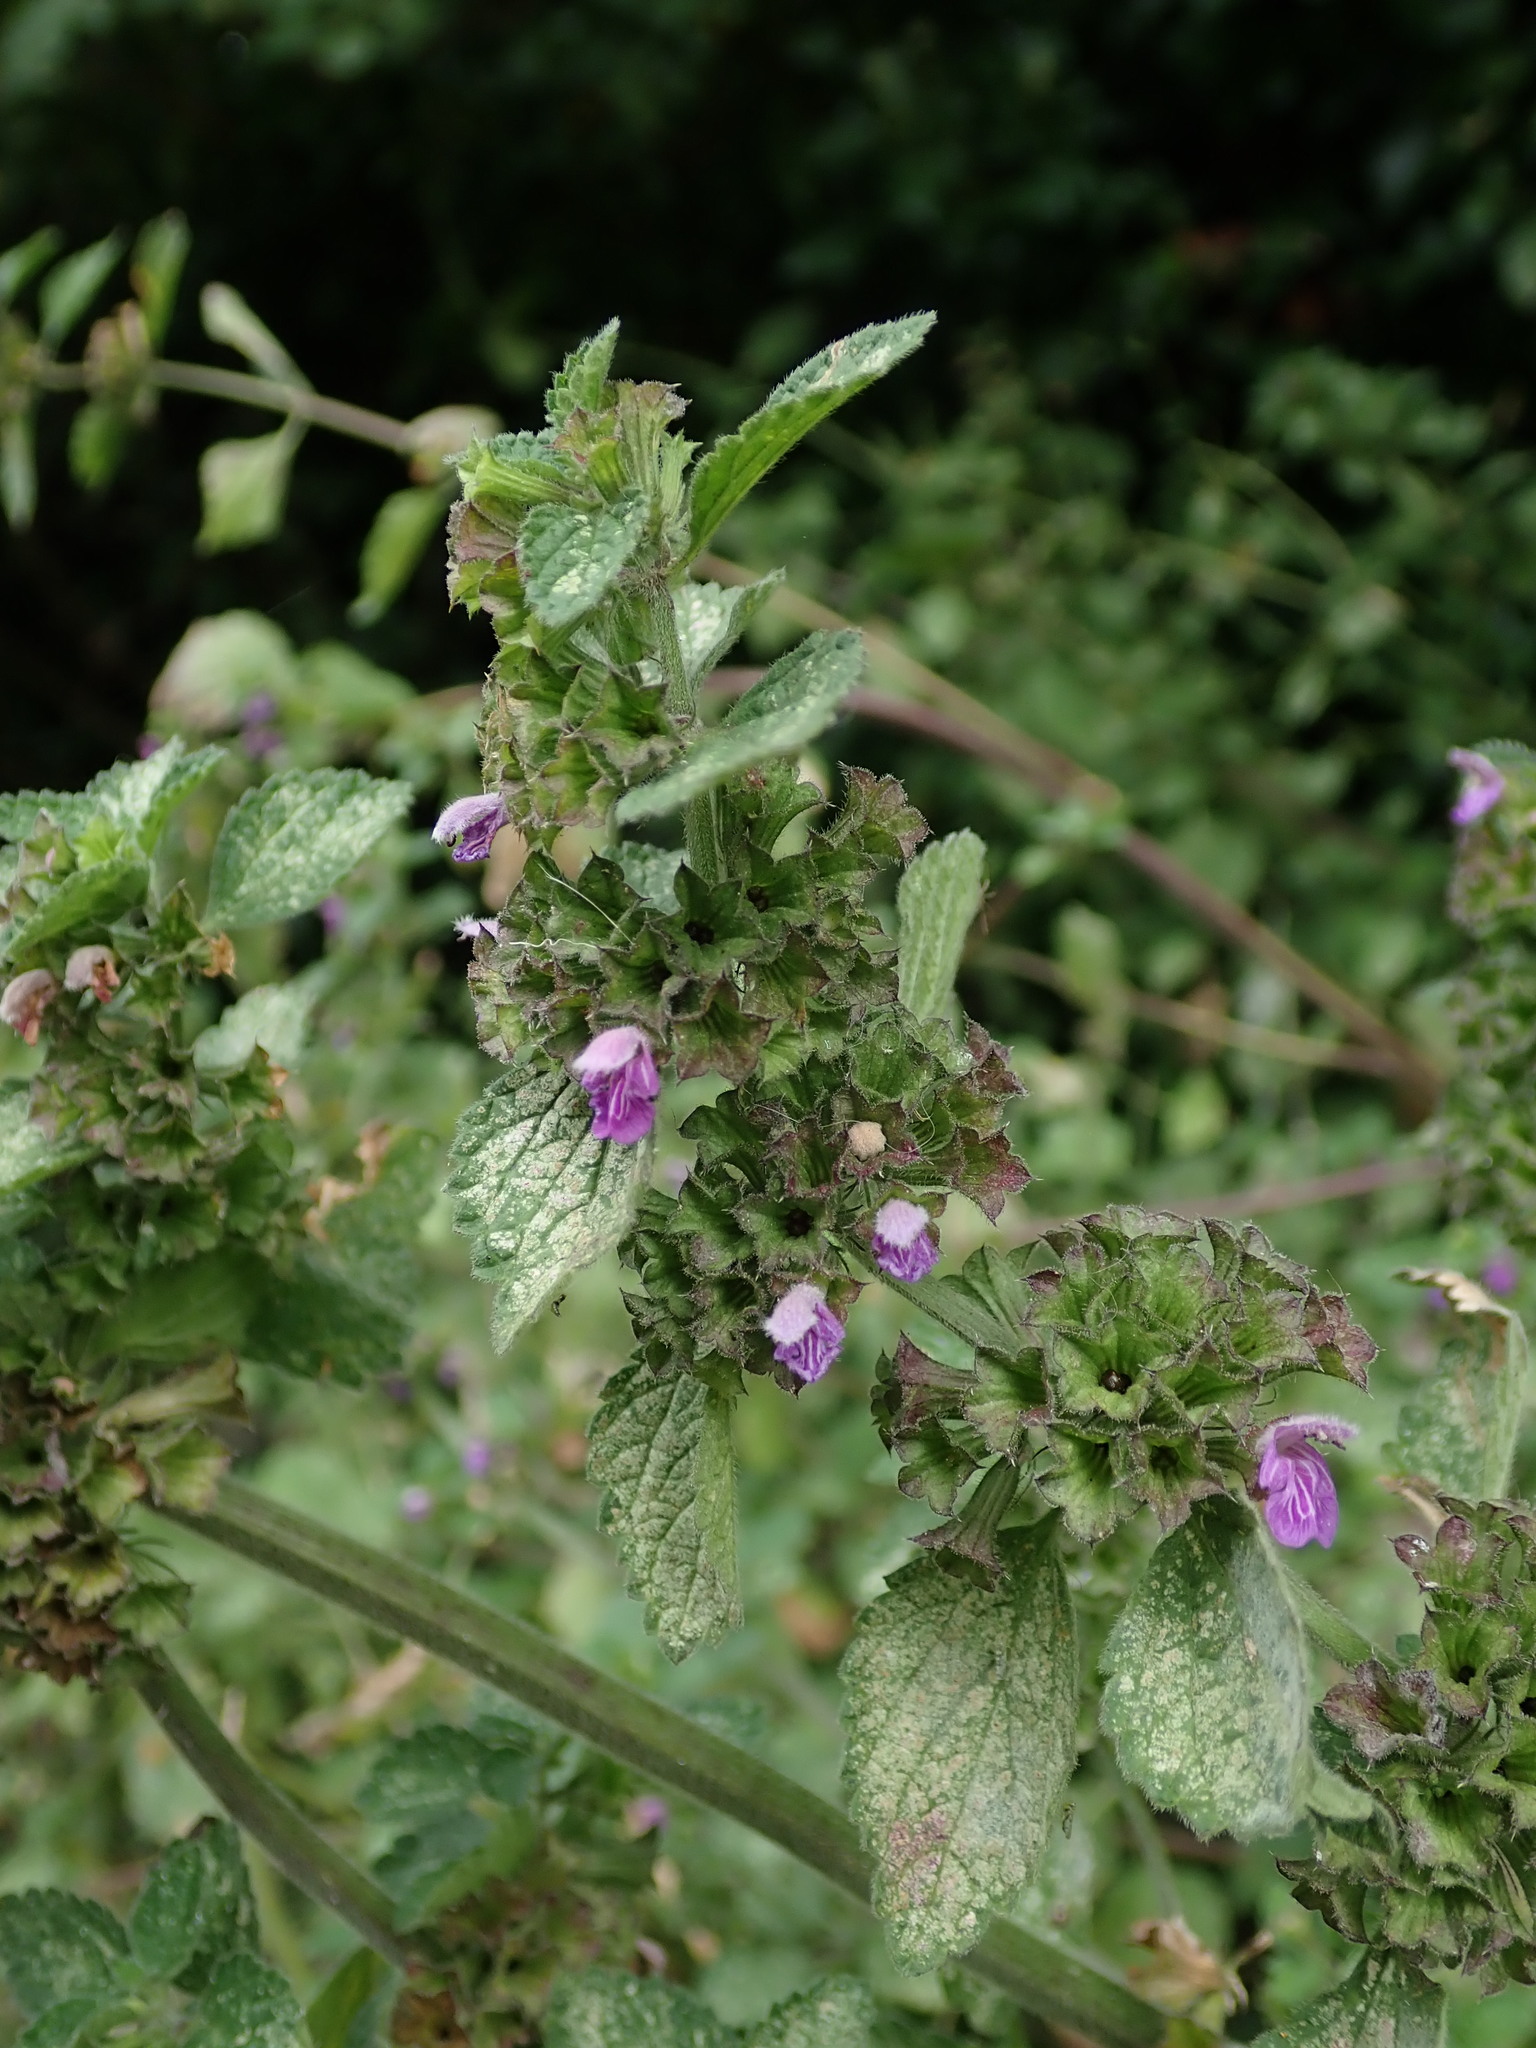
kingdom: Plantae
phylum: Tracheophyta
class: Magnoliopsida
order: Lamiales
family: Lamiaceae
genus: Ballota
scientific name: Ballota nigra
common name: Black horehound
